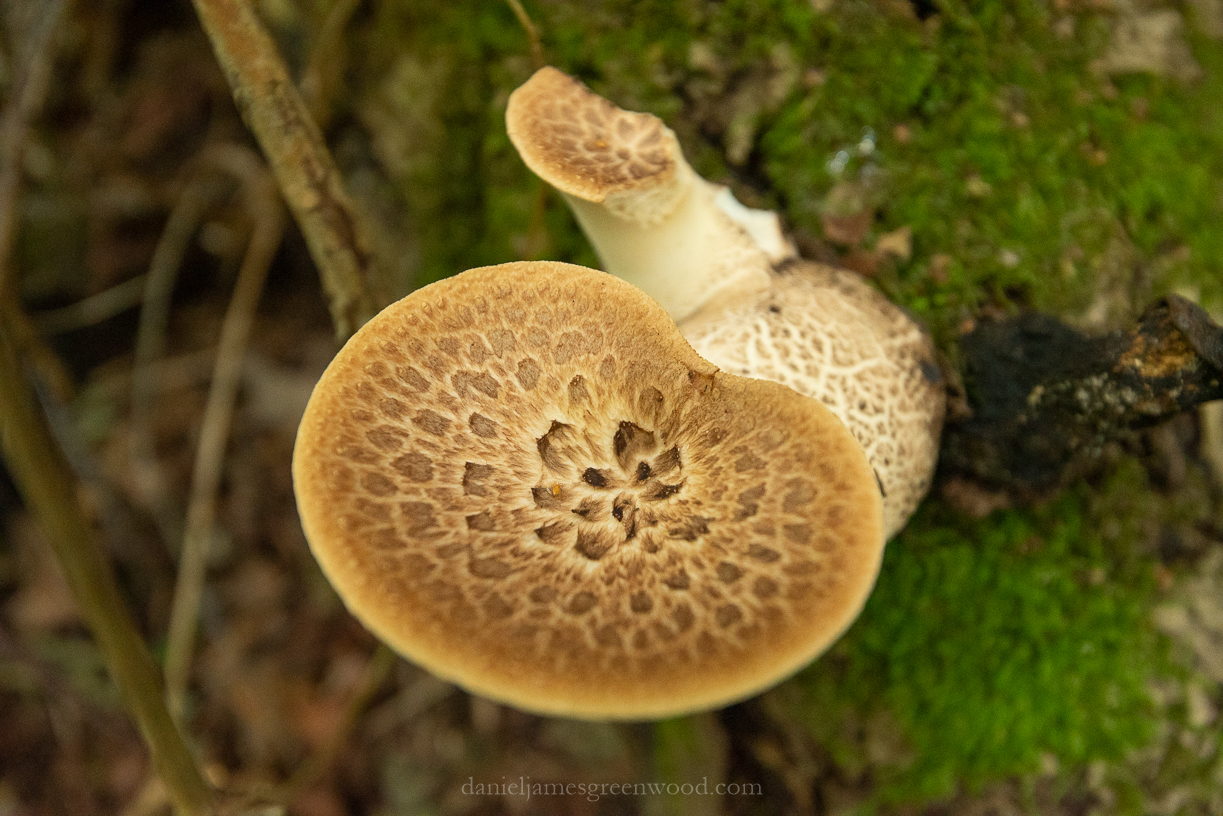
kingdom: Fungi
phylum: Basidiomycota
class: Agaricomycetes
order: Polyporales
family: Polyporaceae
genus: Cerioporus
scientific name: Cerioporus squamosus
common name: Dryad's saddle
